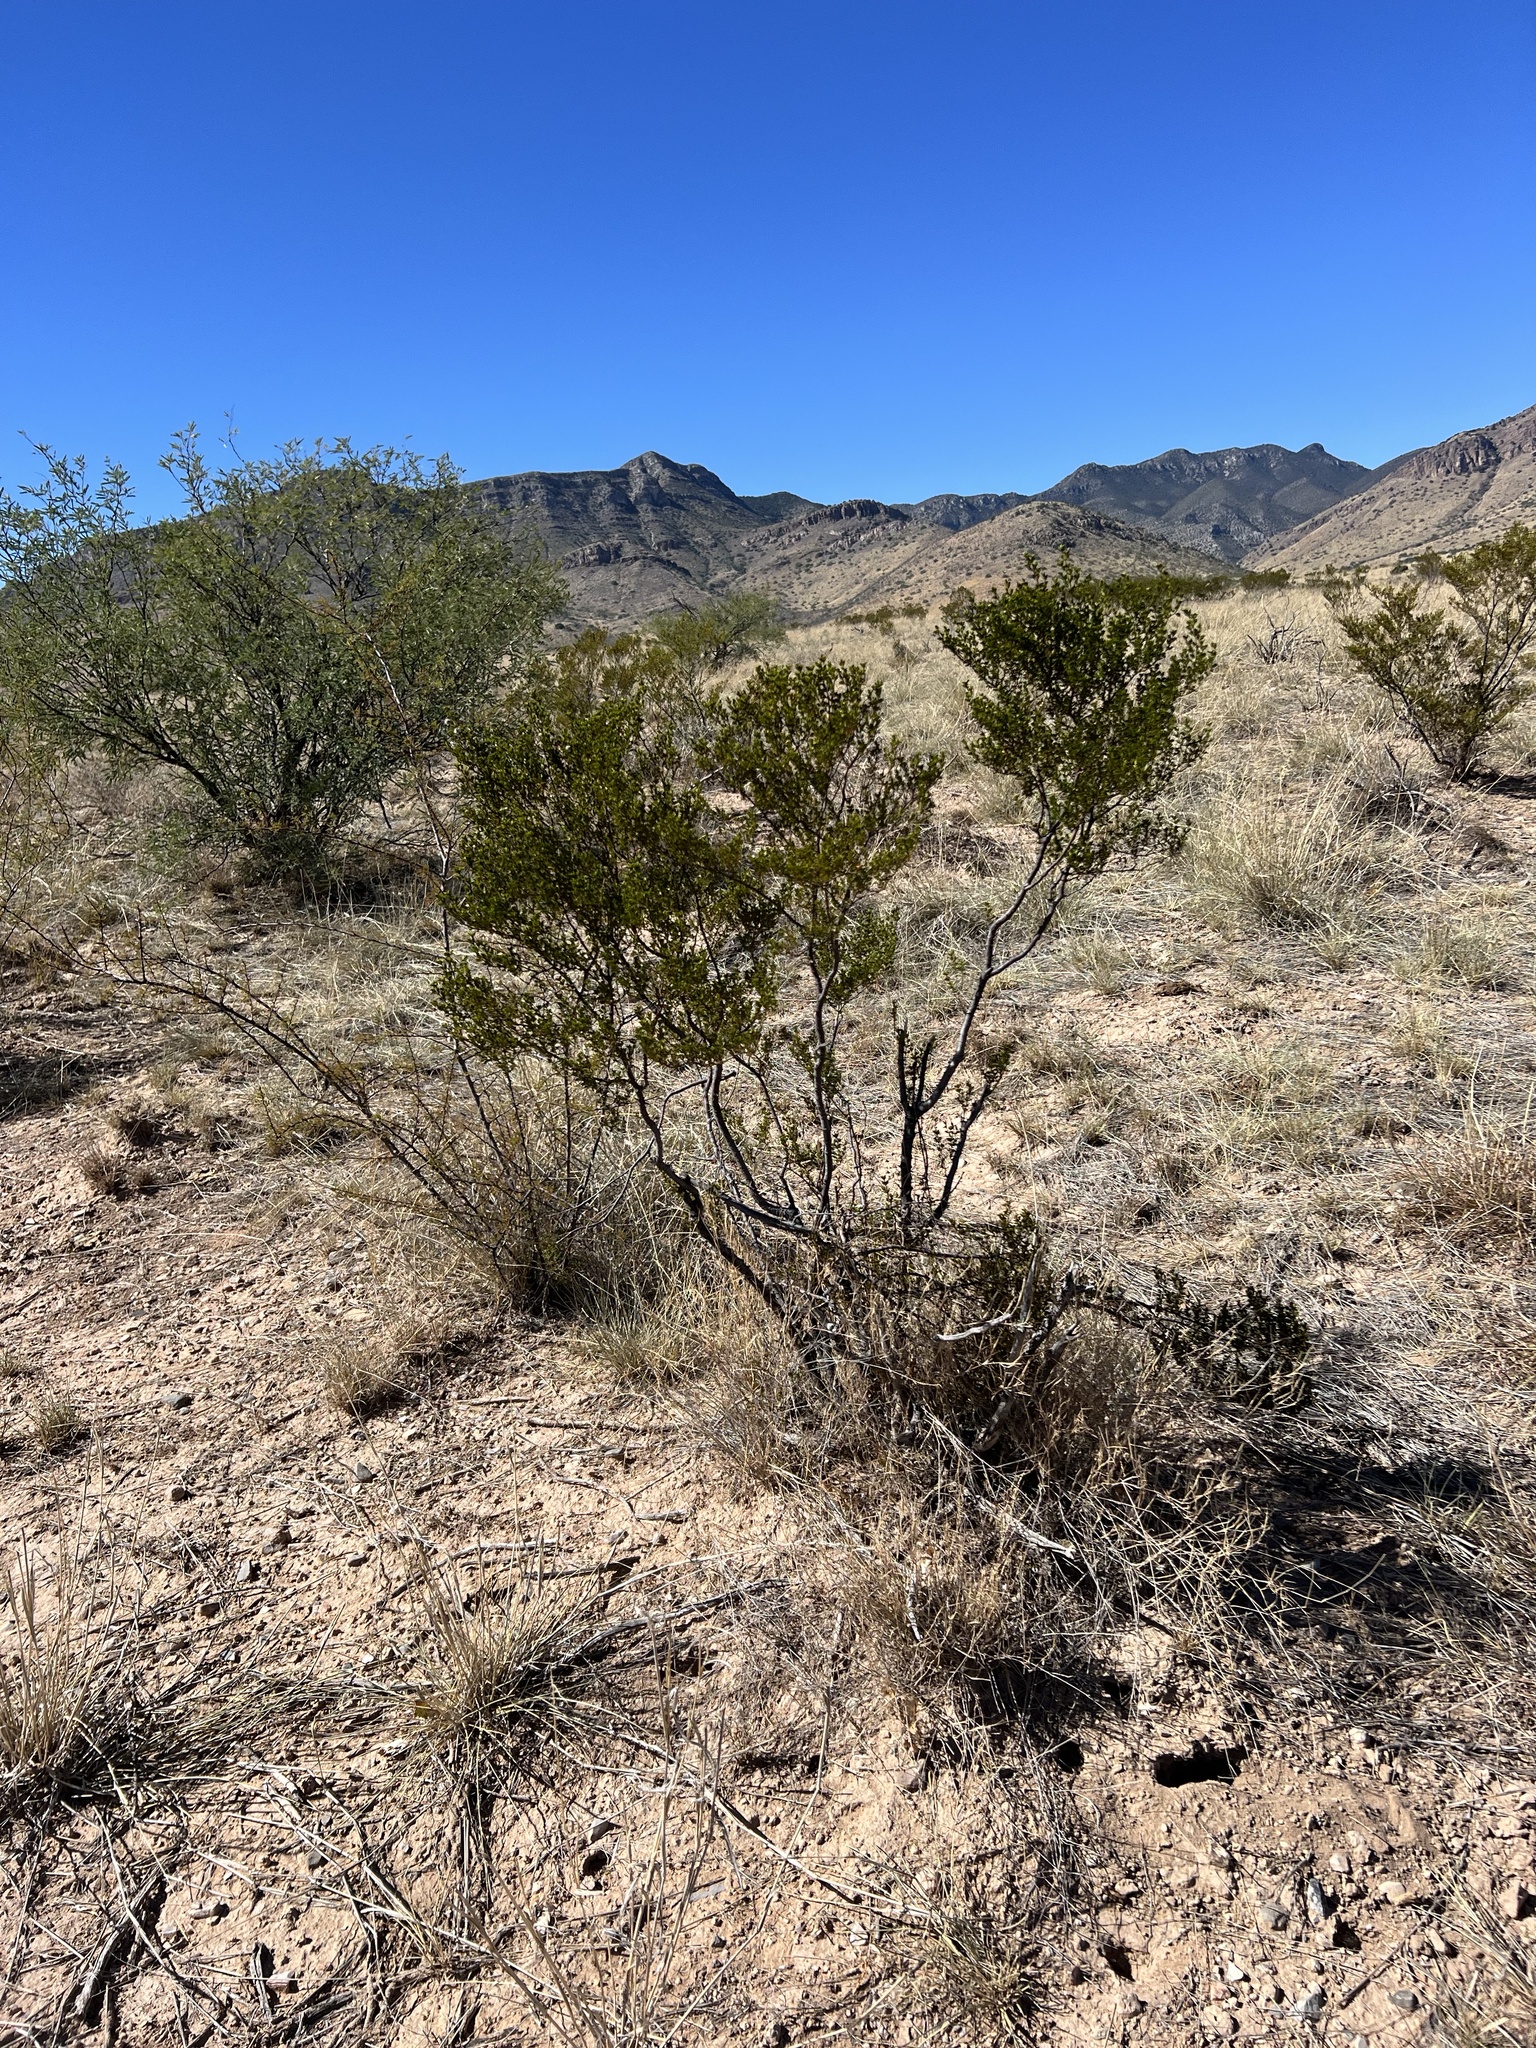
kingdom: Plantae
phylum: Tracheophyta
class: Magnoliopsida
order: Zygophyllales
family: Zygophyllaceae
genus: Larrea
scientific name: Larrea tridentata
